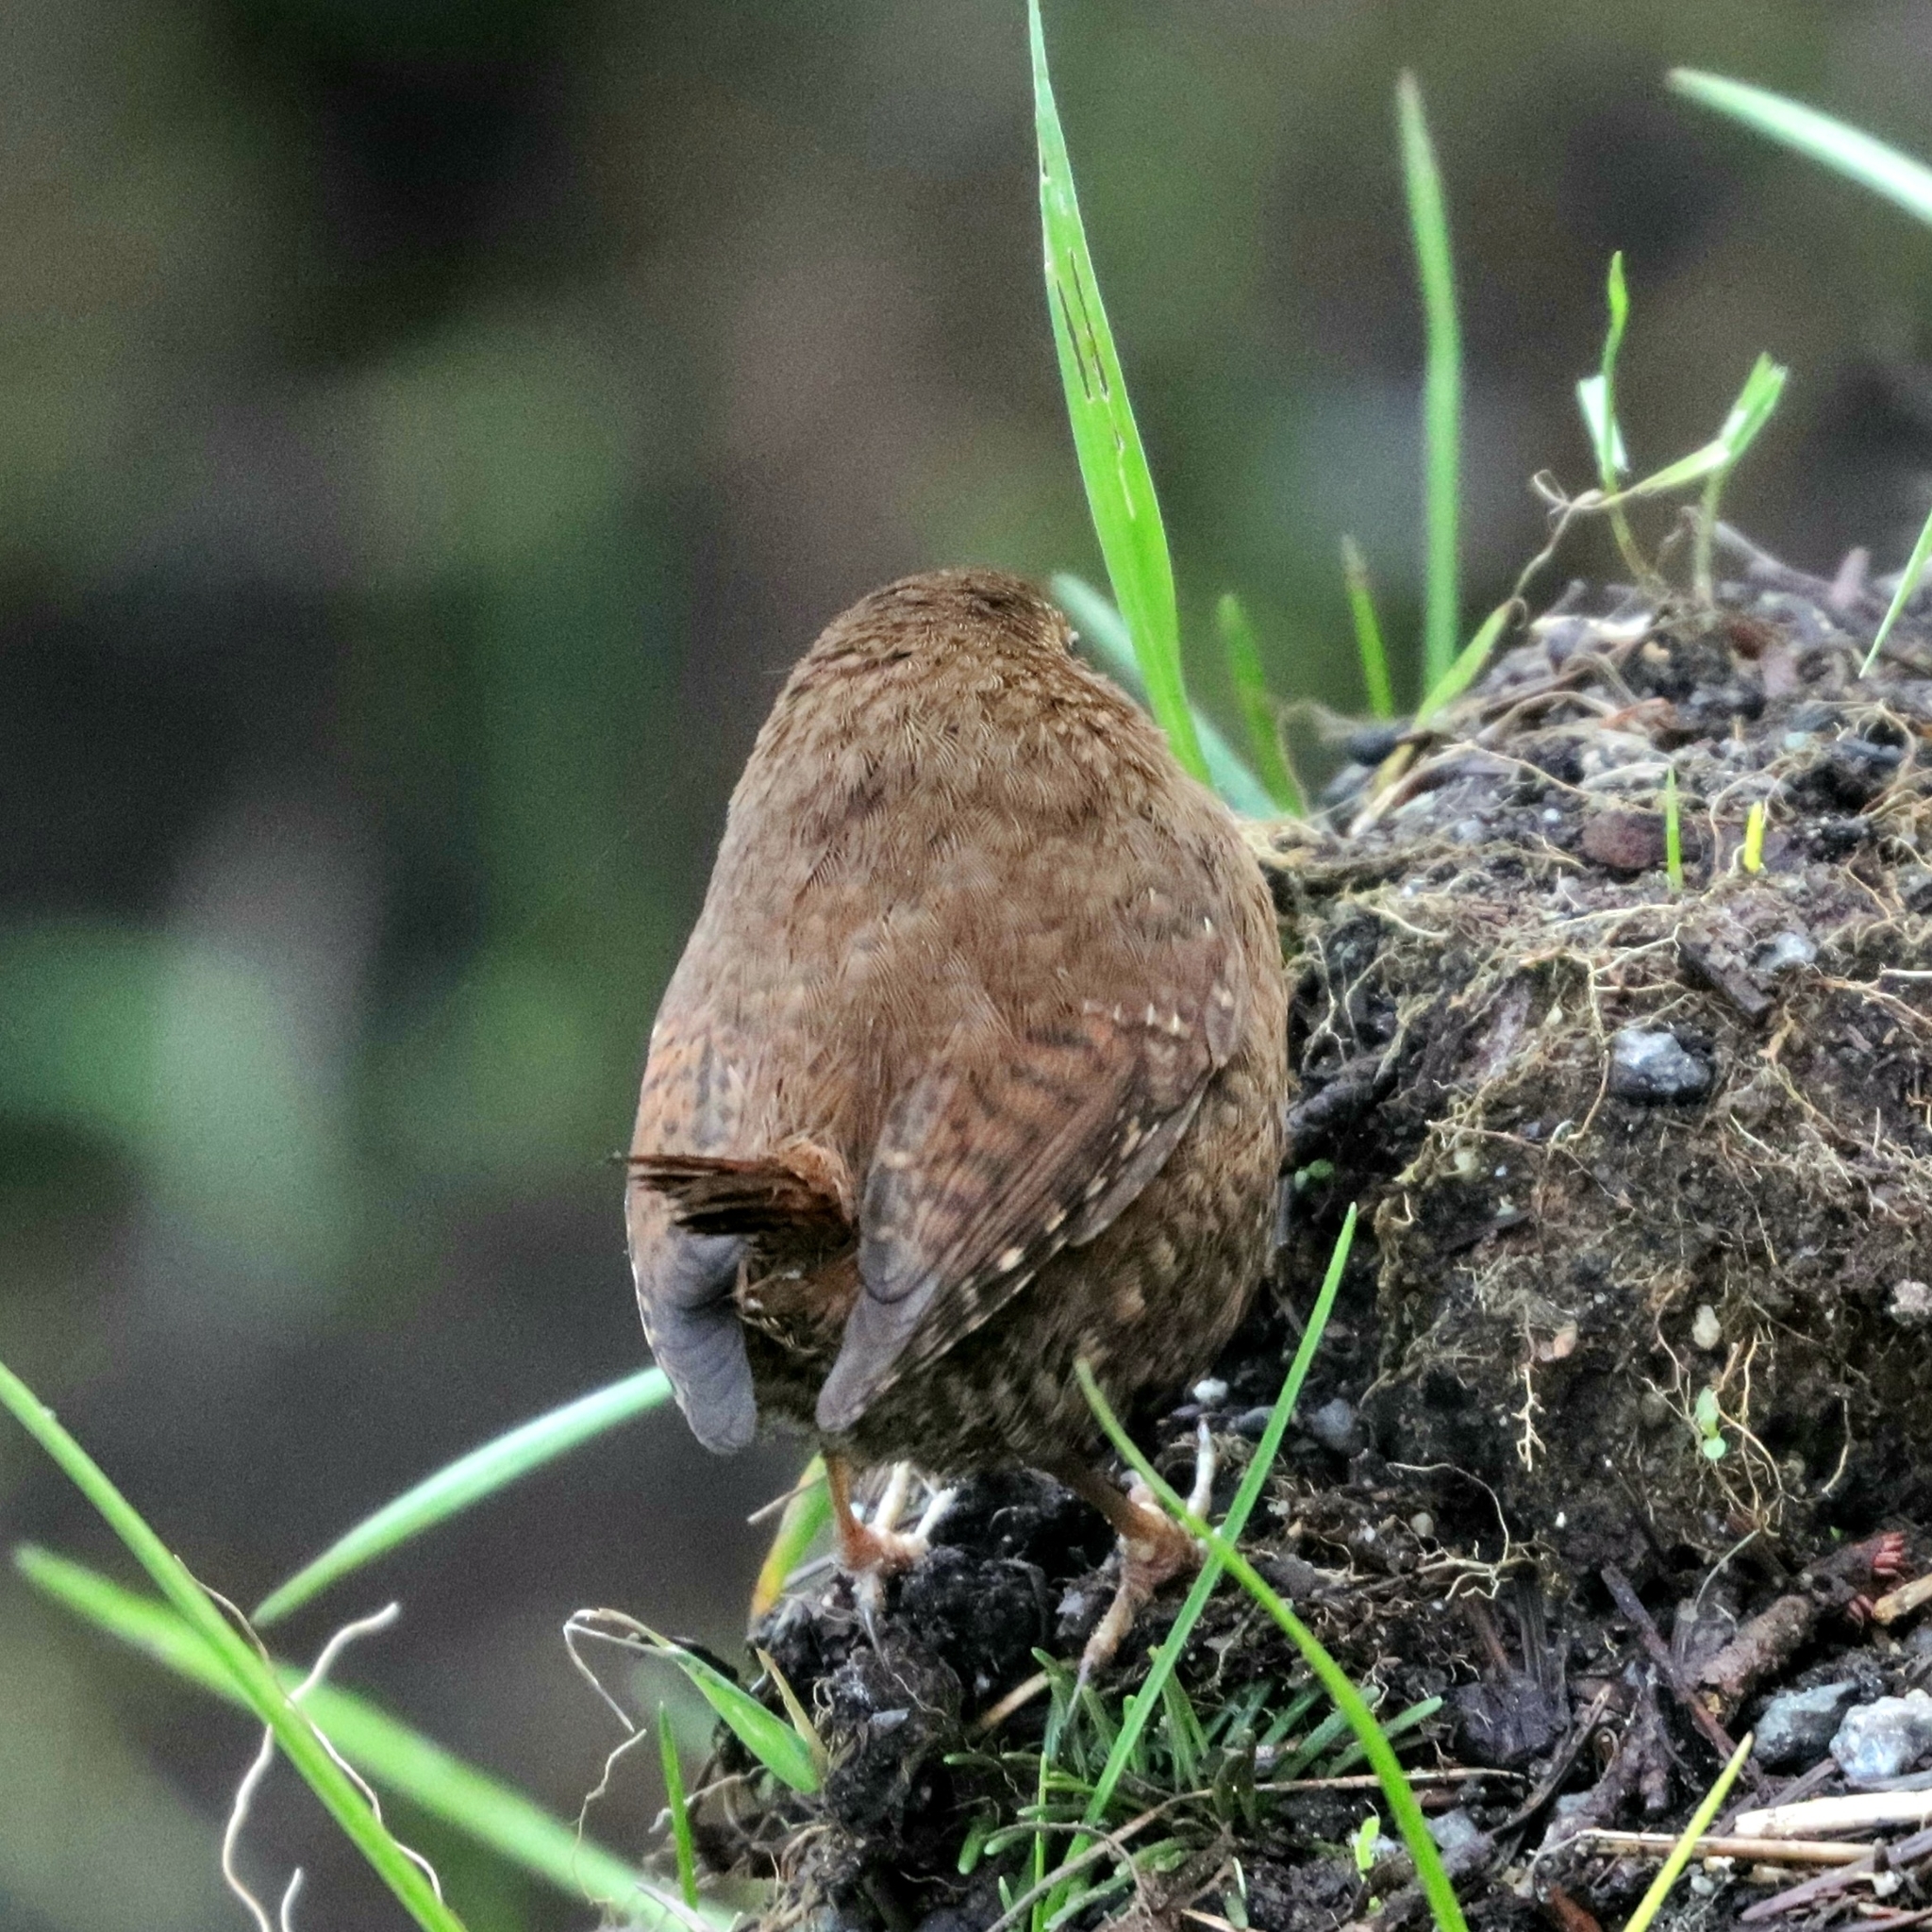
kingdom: Animalia
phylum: Chordata
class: Aves
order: Passeriformes
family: Troglodytidae
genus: Troglodytes
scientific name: Troglodytes pacificus
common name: Pacific wren
